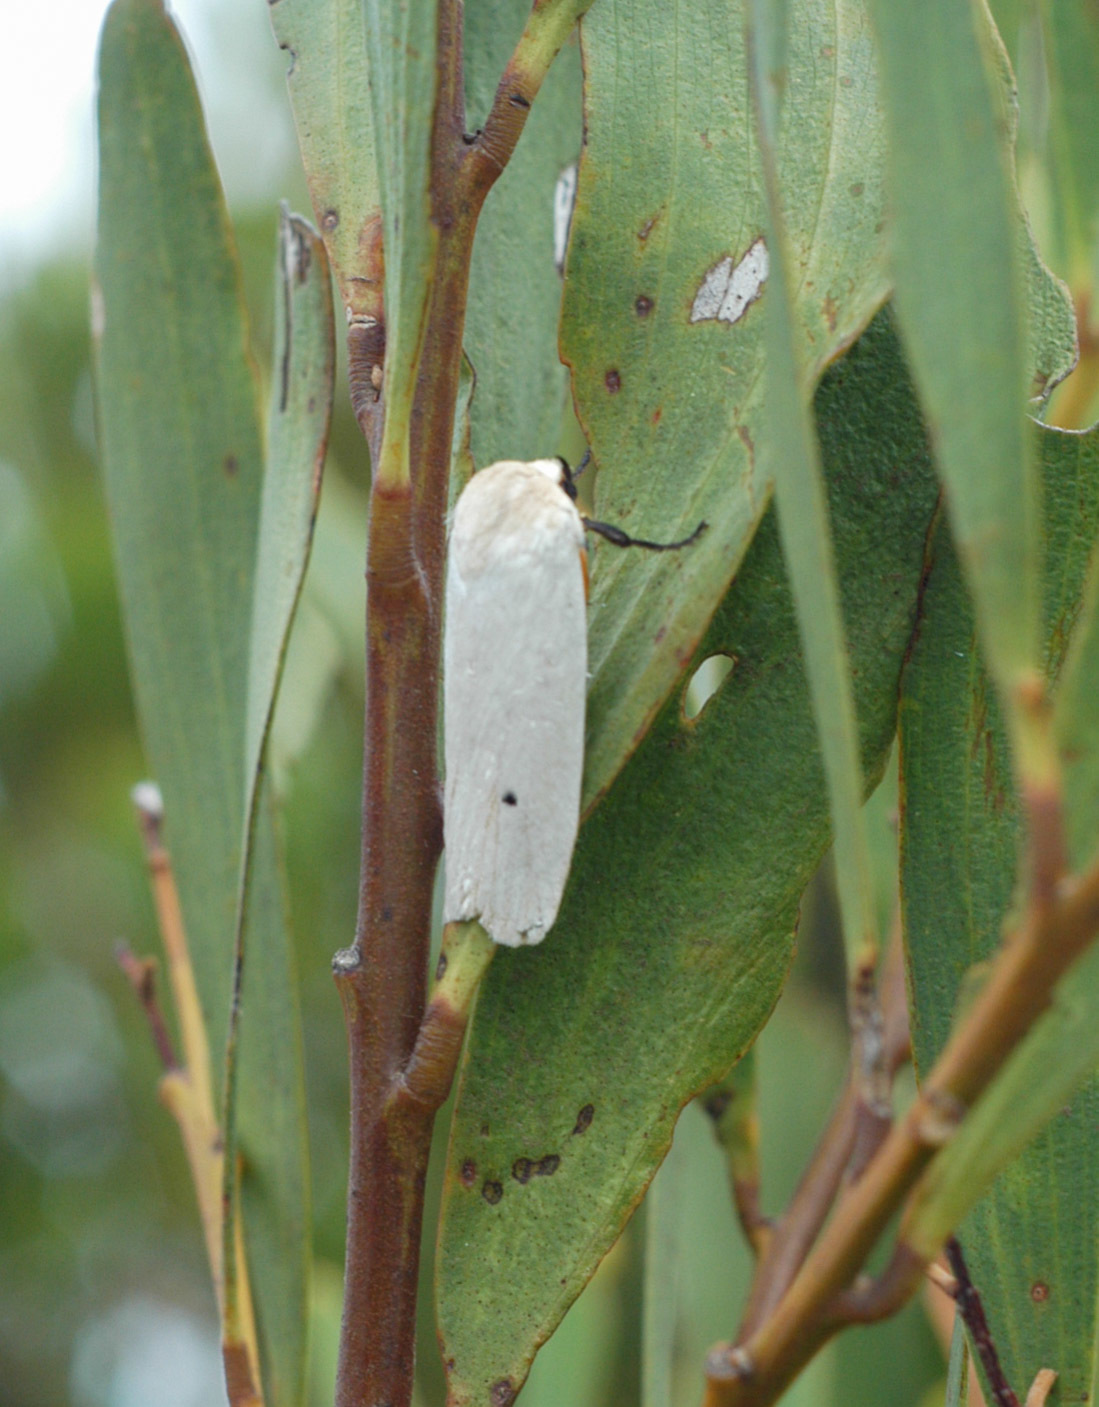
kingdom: Animalia
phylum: Arthropoda
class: Insecta
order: Lepidoptera
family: Xyloryctidae
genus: Maroga
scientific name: Maroga melanostigma
